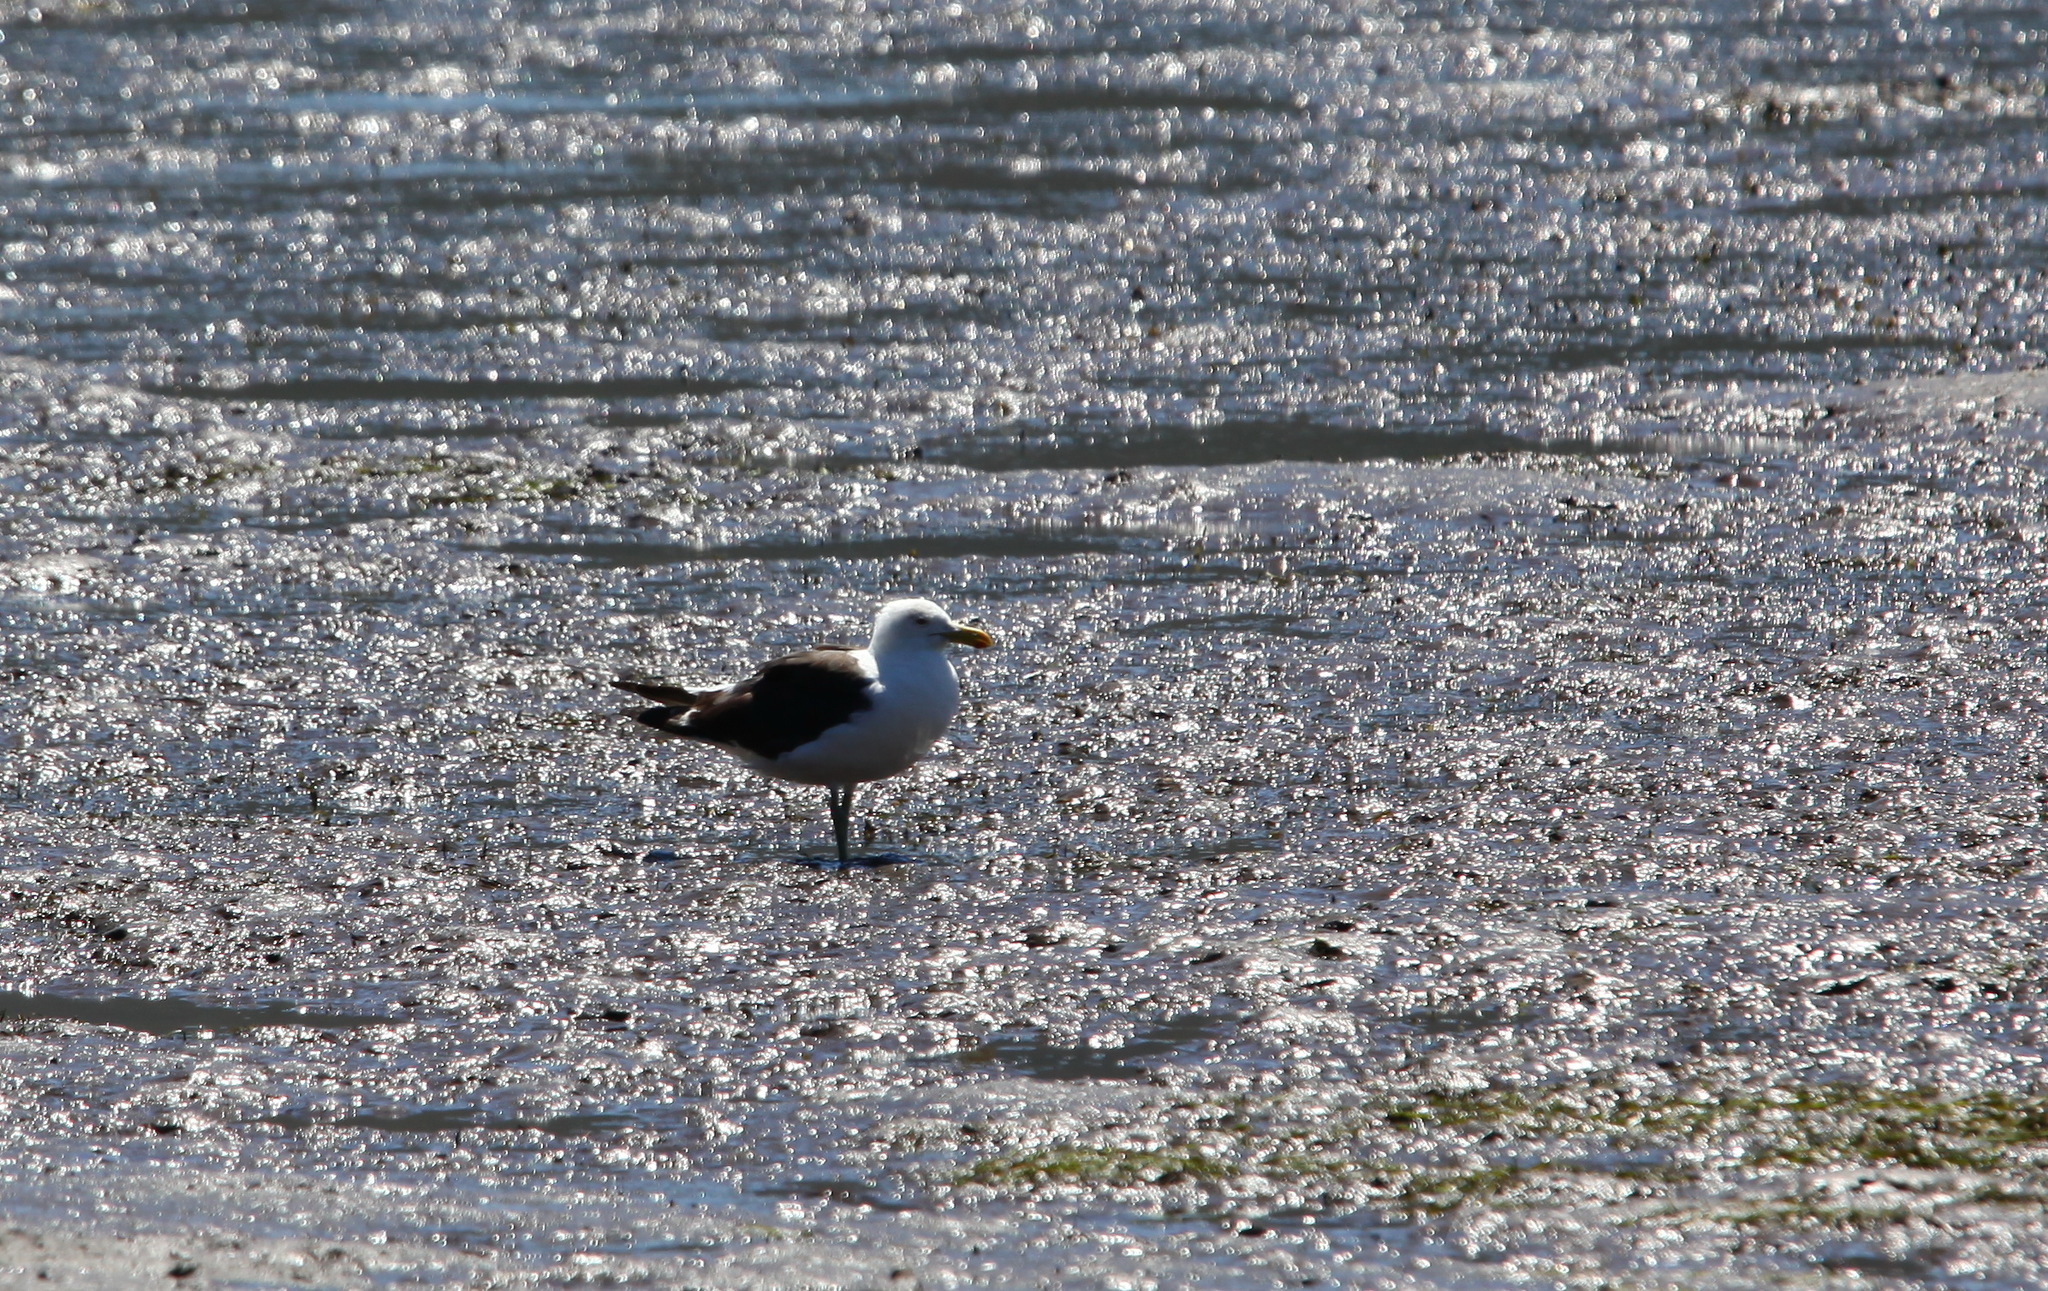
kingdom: Animalia
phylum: Chordata
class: Aves
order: Charadriiformes
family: Laridae
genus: Larus
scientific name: Larus dominicanus
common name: Kelp gull
